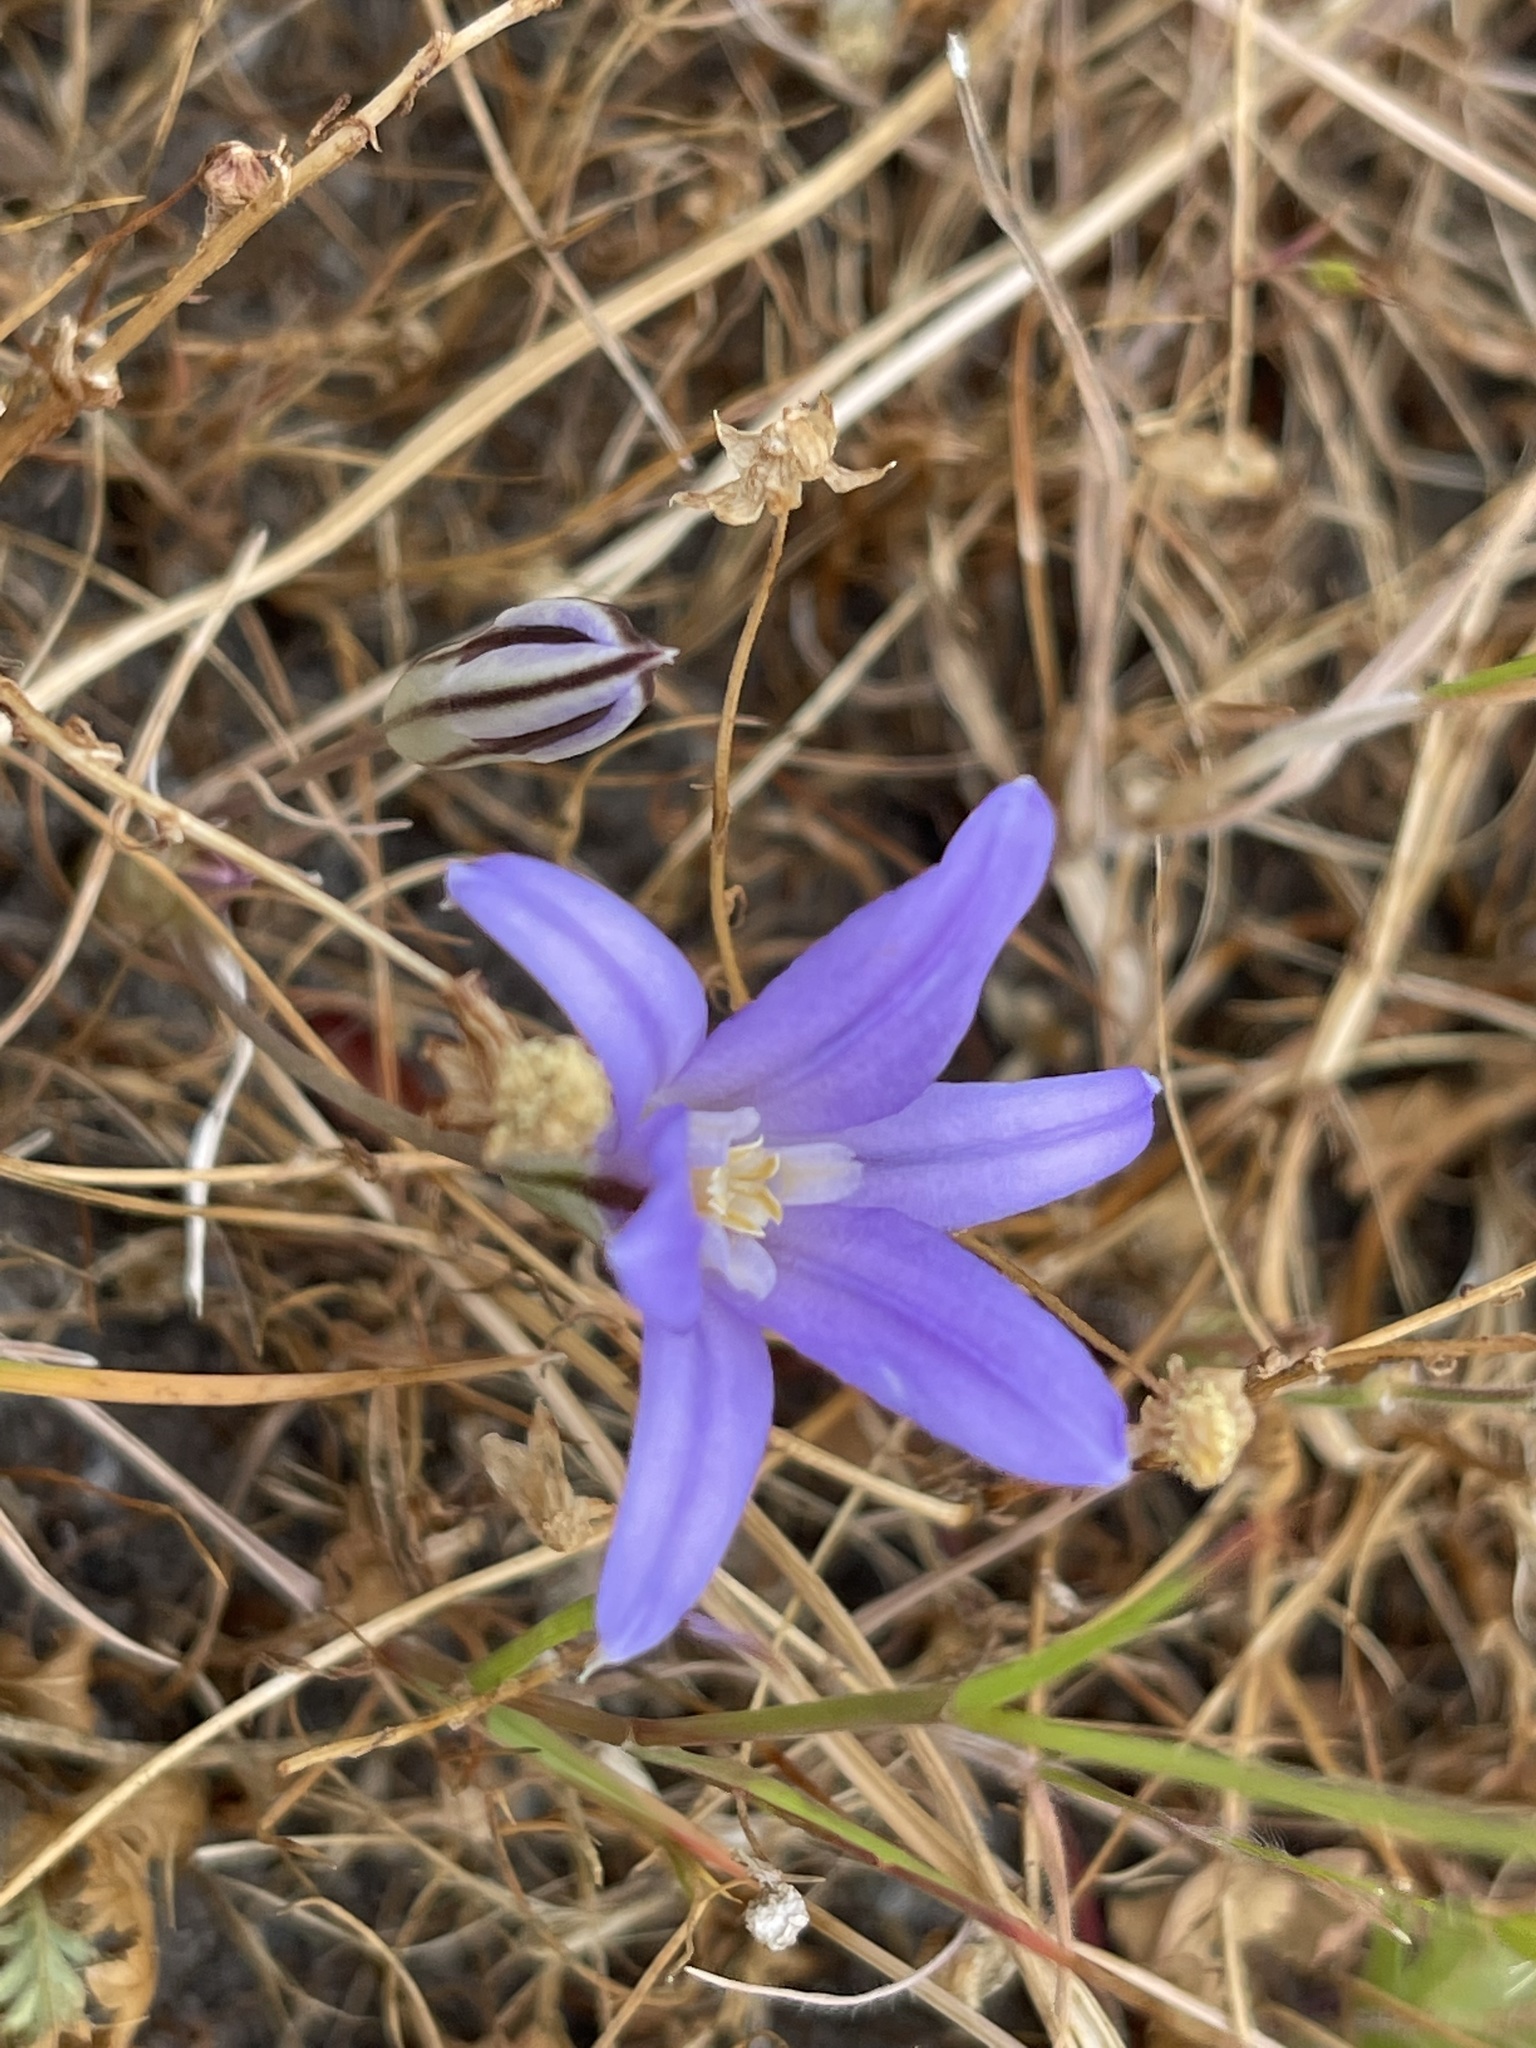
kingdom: Plantae
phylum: Tracheophyta
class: Liliopsida
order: Asparagales
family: Asparagaceae
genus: Brodiaea
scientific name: Brodiaea terrestris
